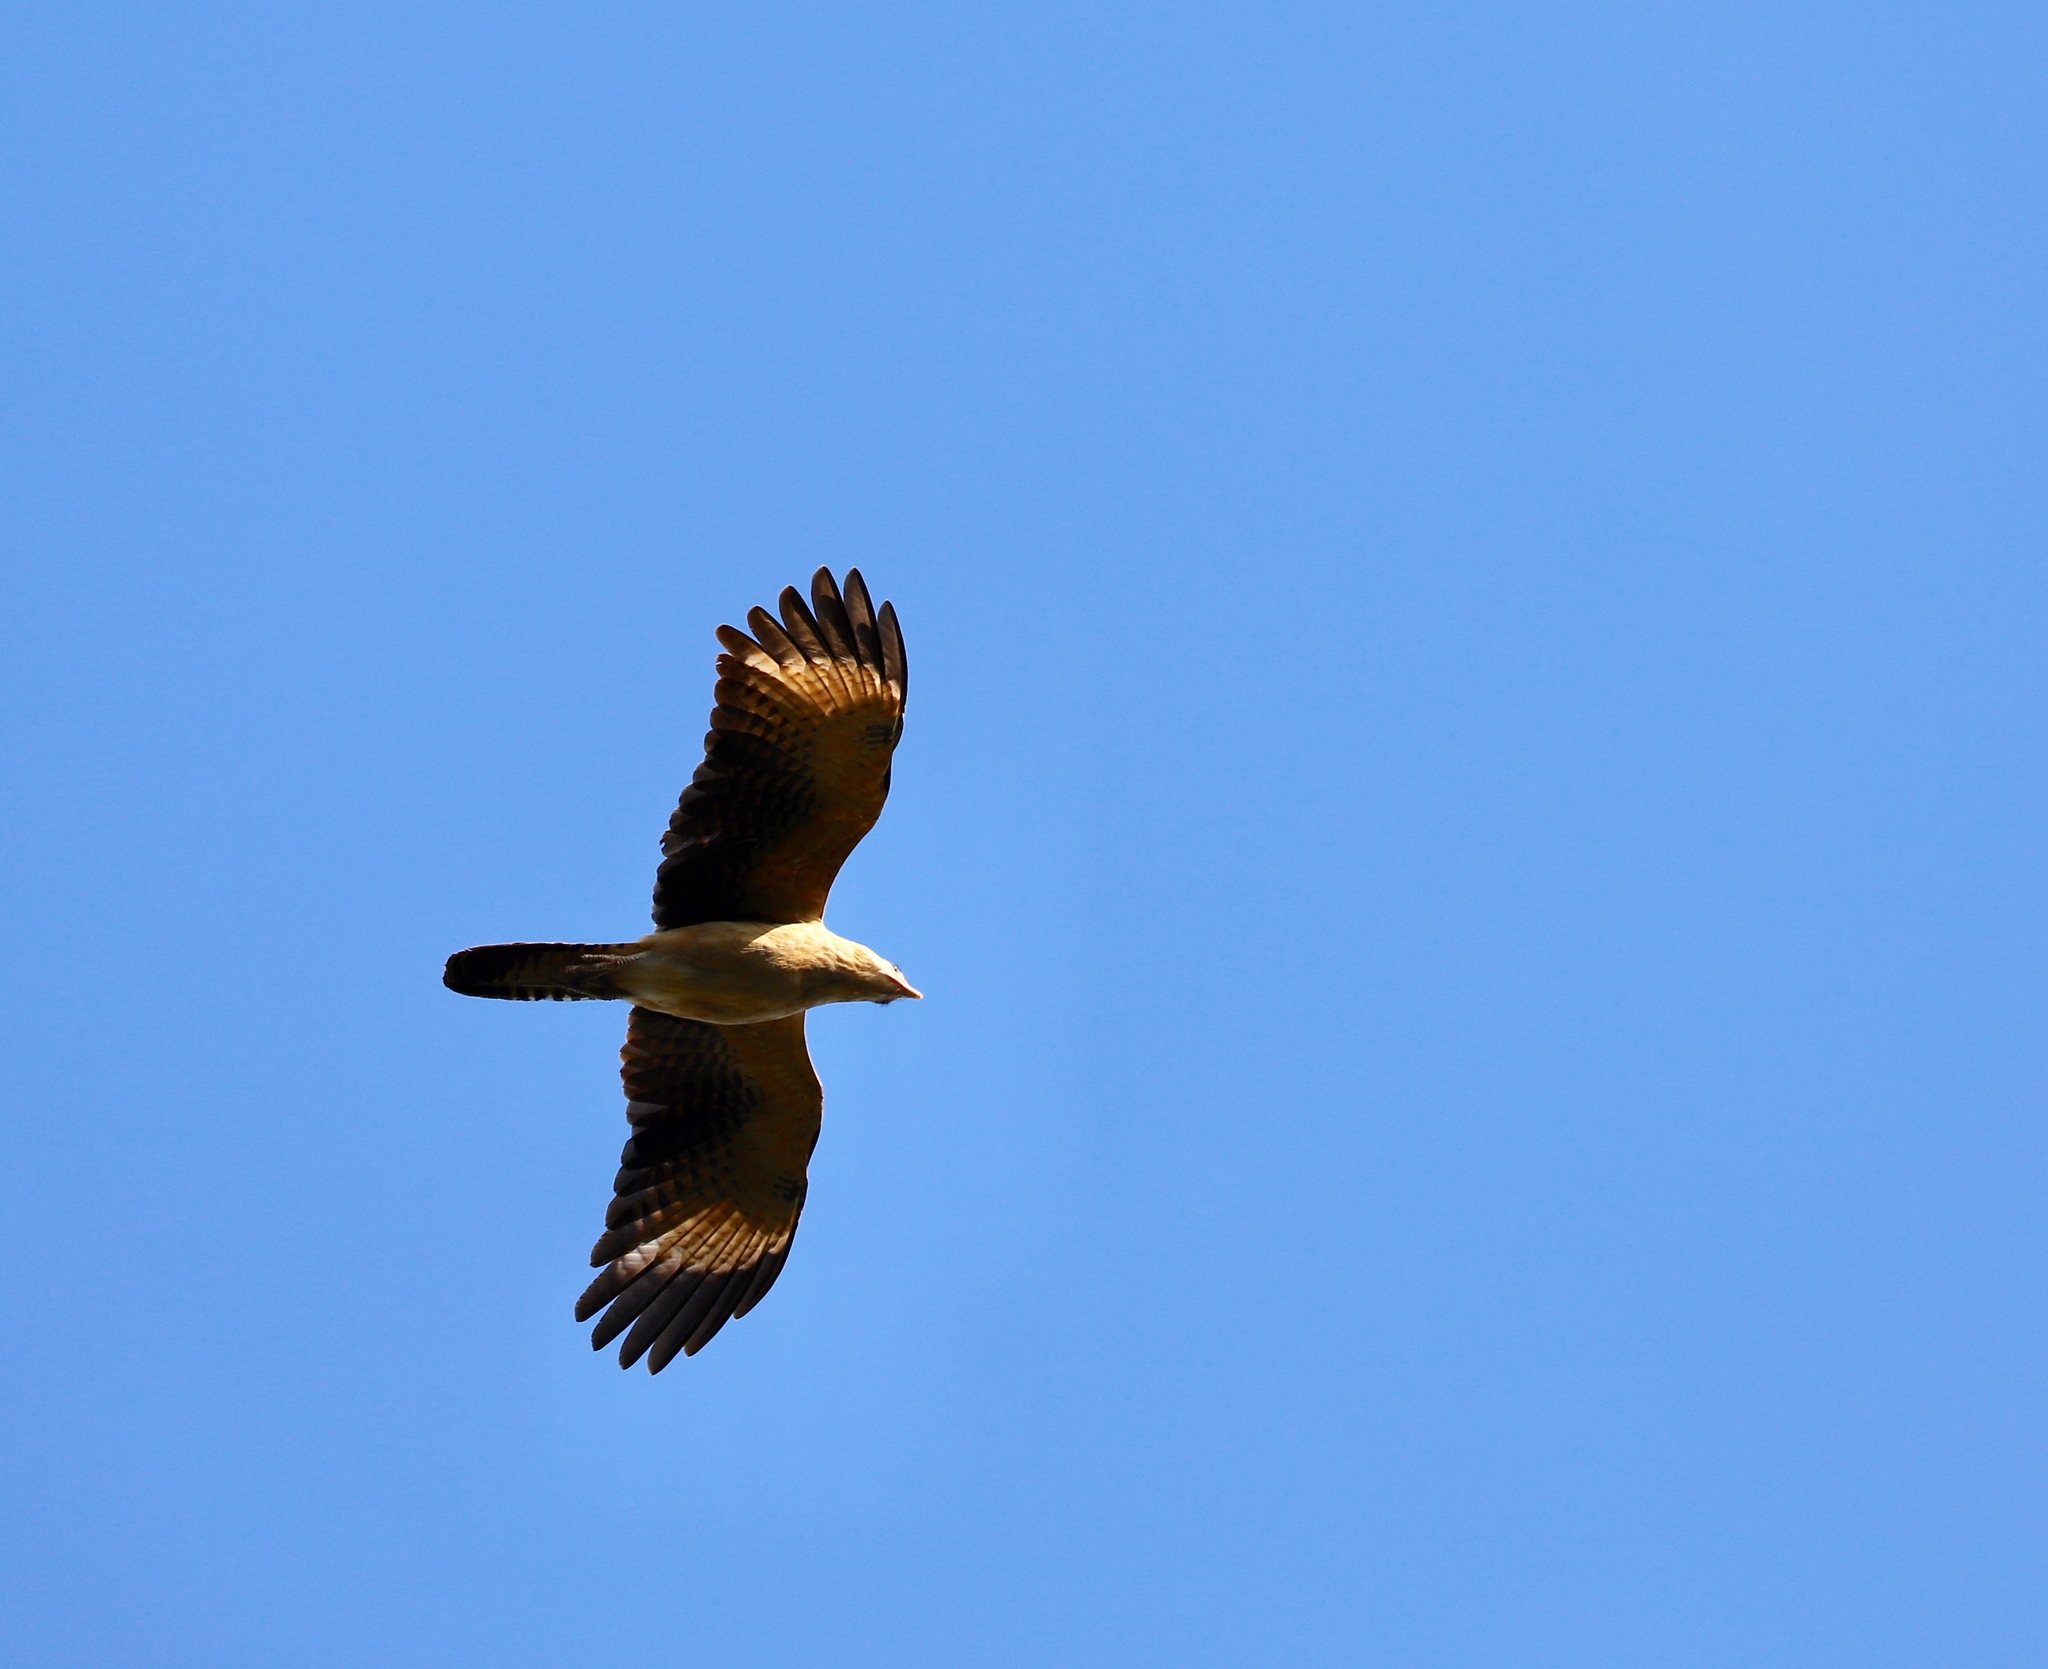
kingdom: Animalia
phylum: Chordata
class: Aves
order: Falconiformes
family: Falconidae
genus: Daptrius
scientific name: Daptrius
